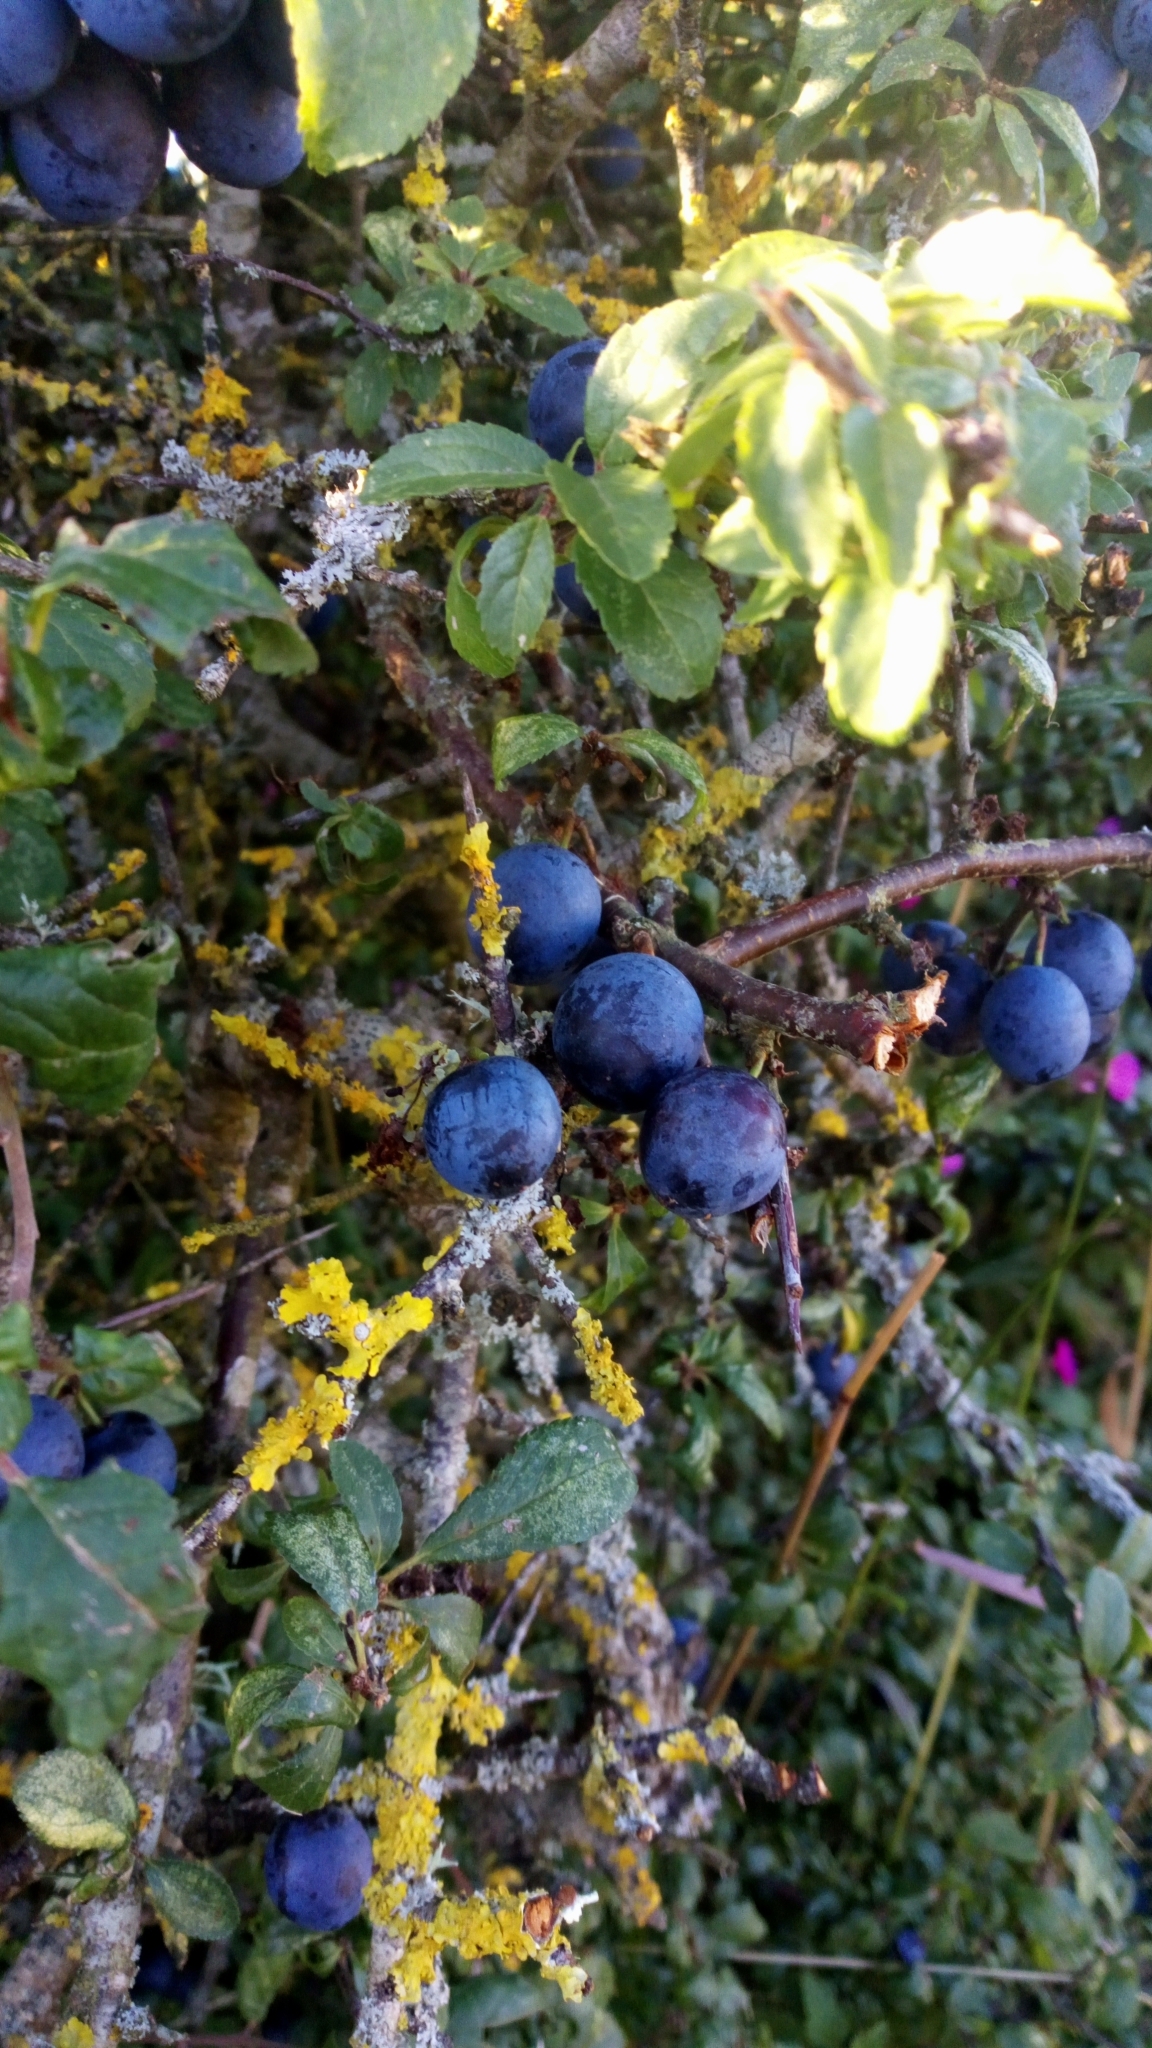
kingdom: Plantae
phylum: Tracheophyta
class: Magnoliopsida
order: Rosales
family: Rosaceae
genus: Prunus
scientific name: Prunus spinosa
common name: Blackthorn
